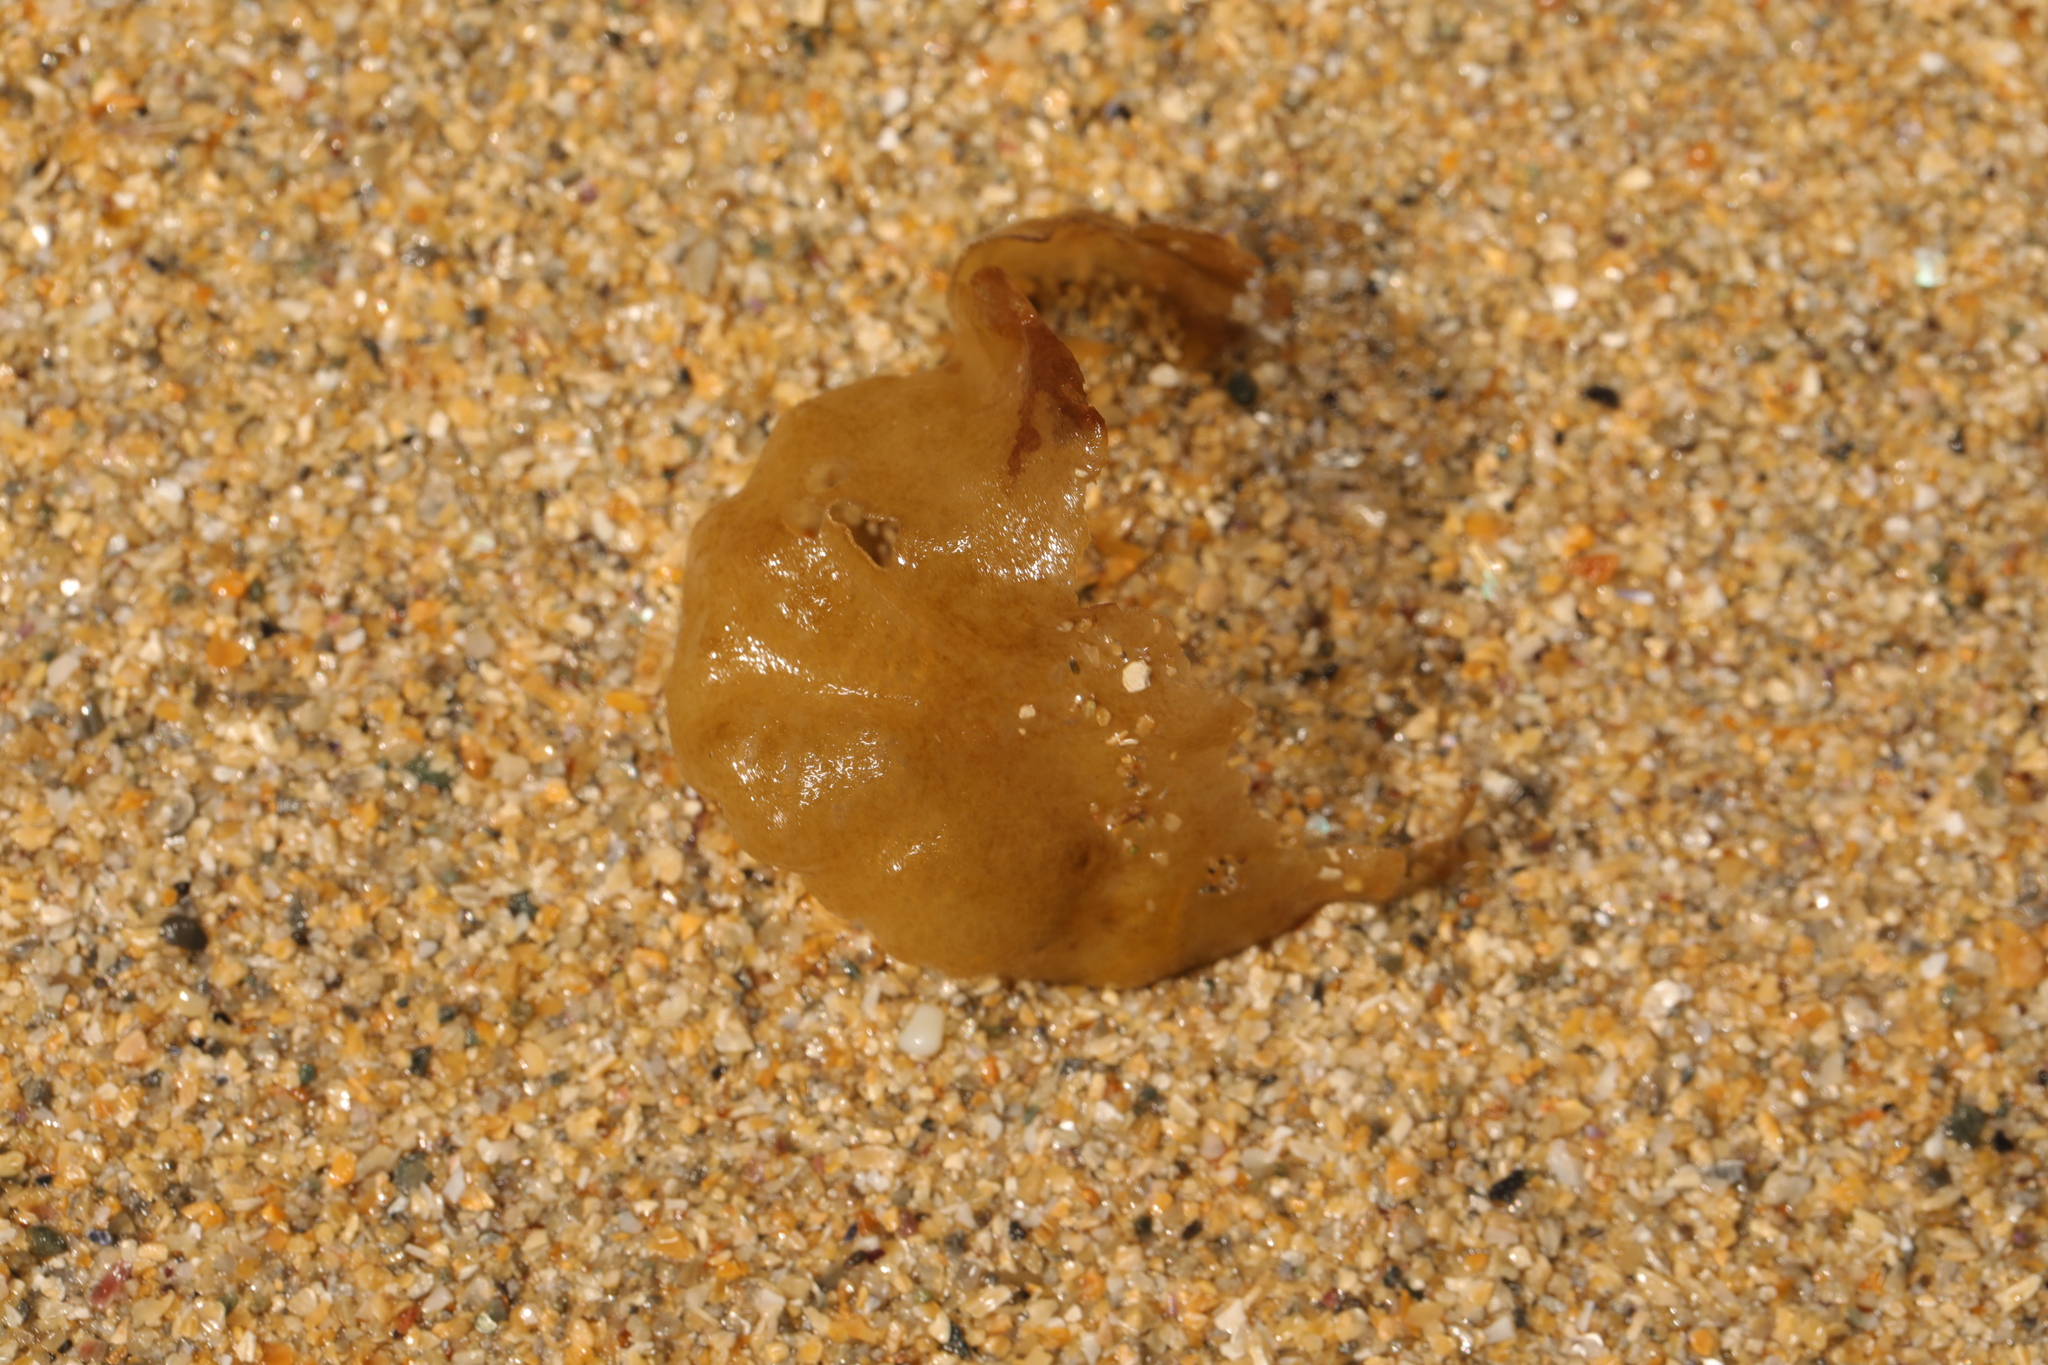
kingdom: Chromista
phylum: Ochrophyta
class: Phaeophyceae
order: Scytosiphonales
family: Scytosiphonaceae
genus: Colpomenia
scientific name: Colpomenia peregrina
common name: Oyster thief
